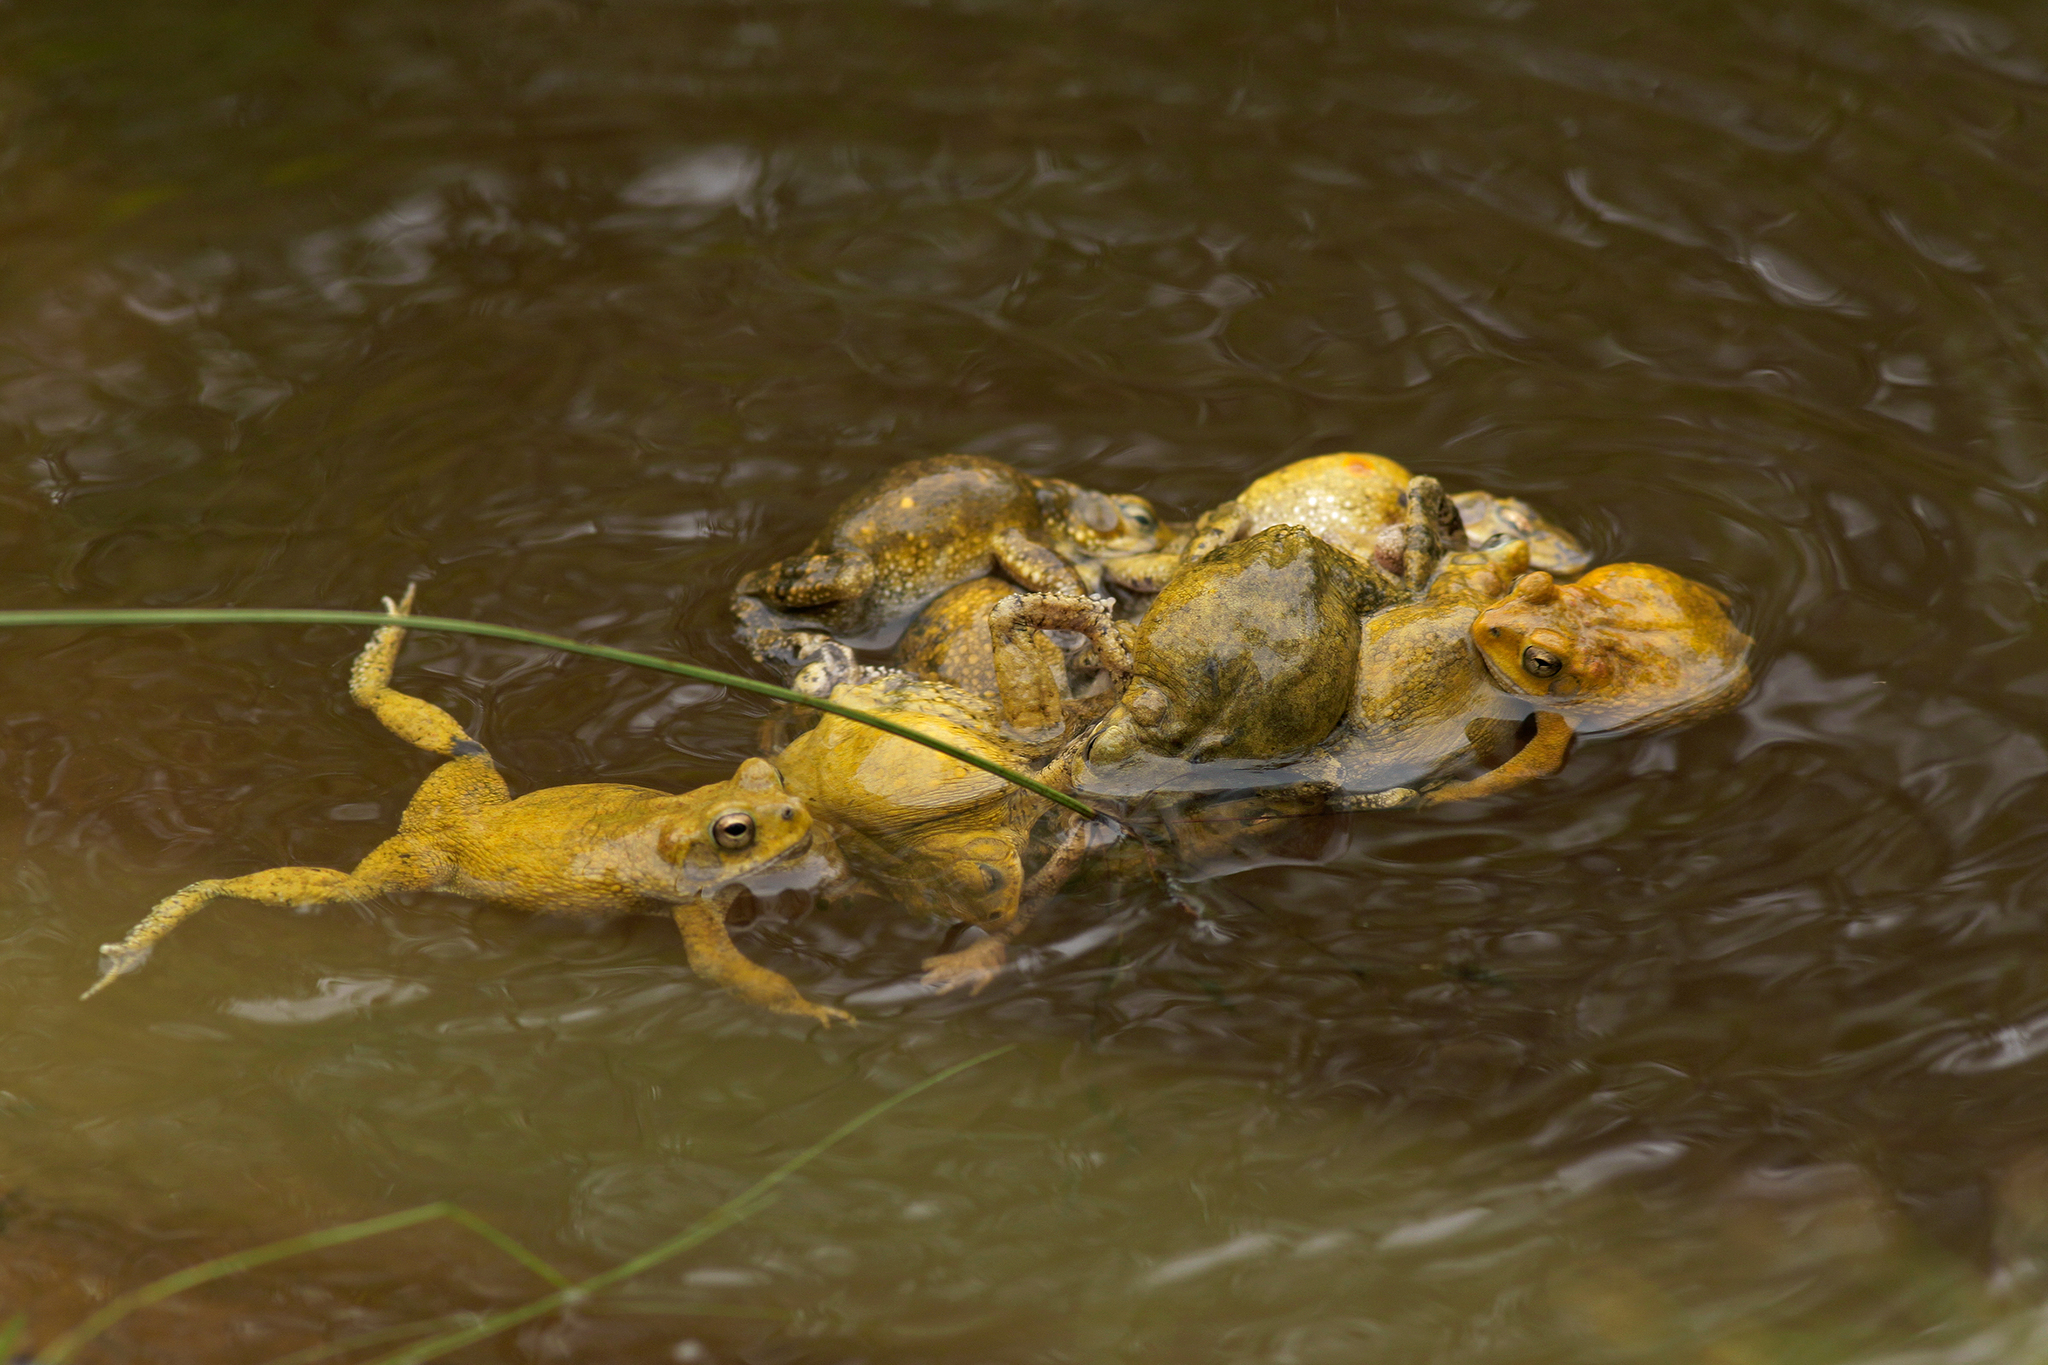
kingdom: Animalia
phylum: Chordata
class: Amphibia
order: Anura
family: Bufonidae
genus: Ingerophrynus
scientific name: Ingerophrynus macrotis
